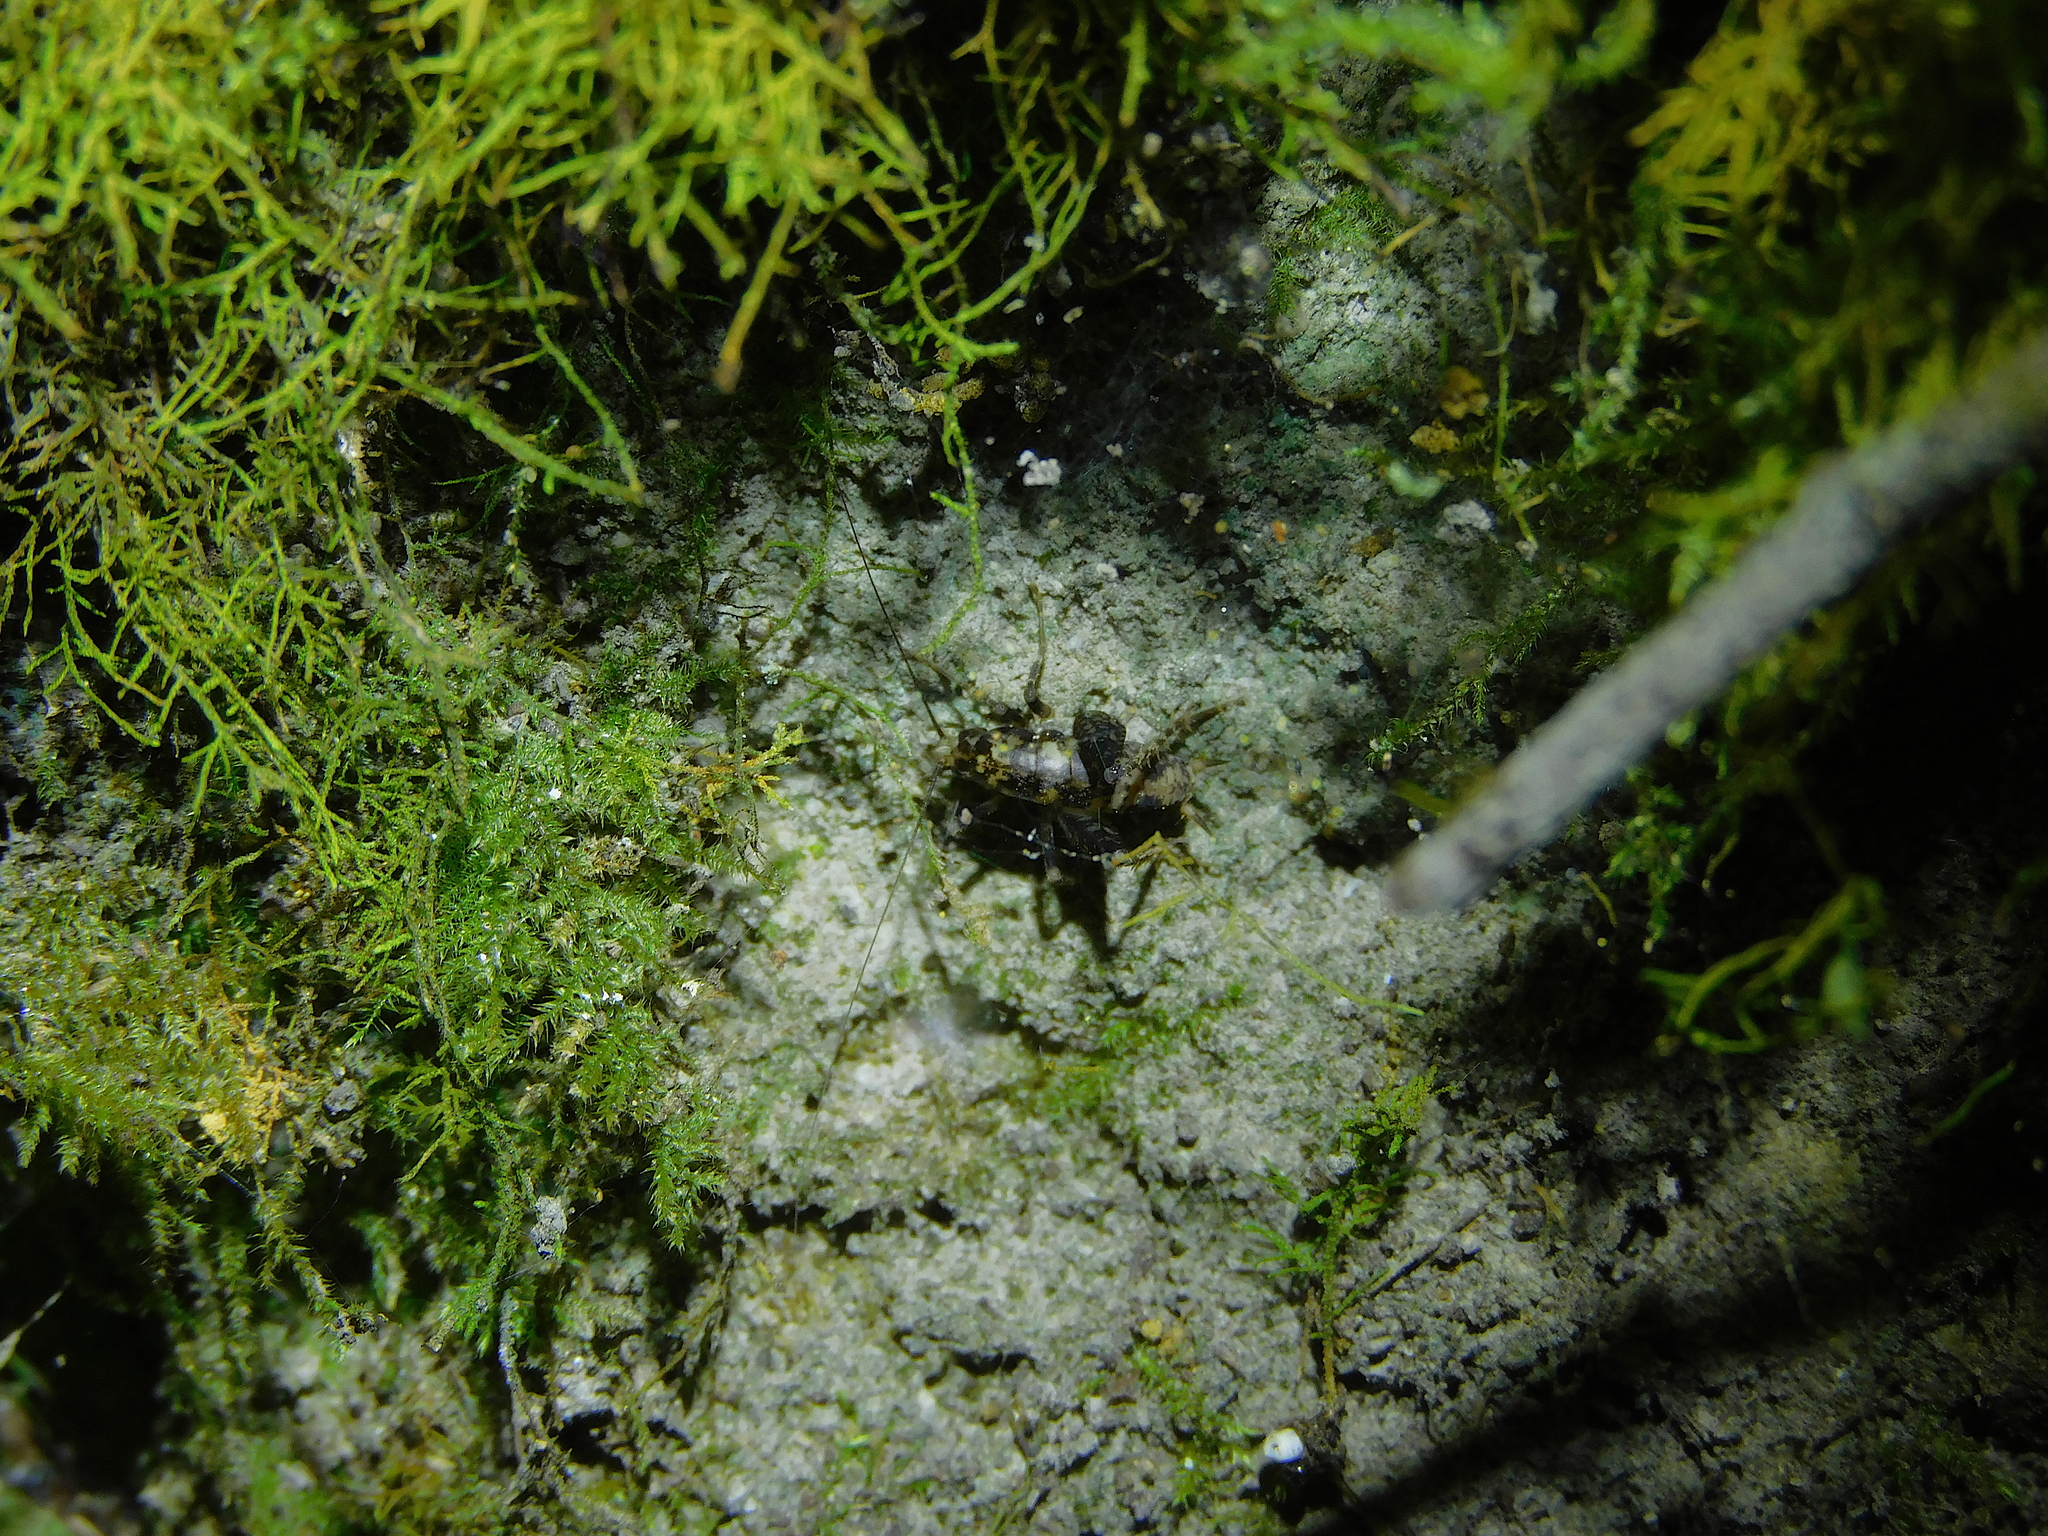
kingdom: Animalia
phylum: Arthropoda
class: Insecta
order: Orthoptera
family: Rhaphidophoridae
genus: Parvotettix
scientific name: Parvotettix domesticus
